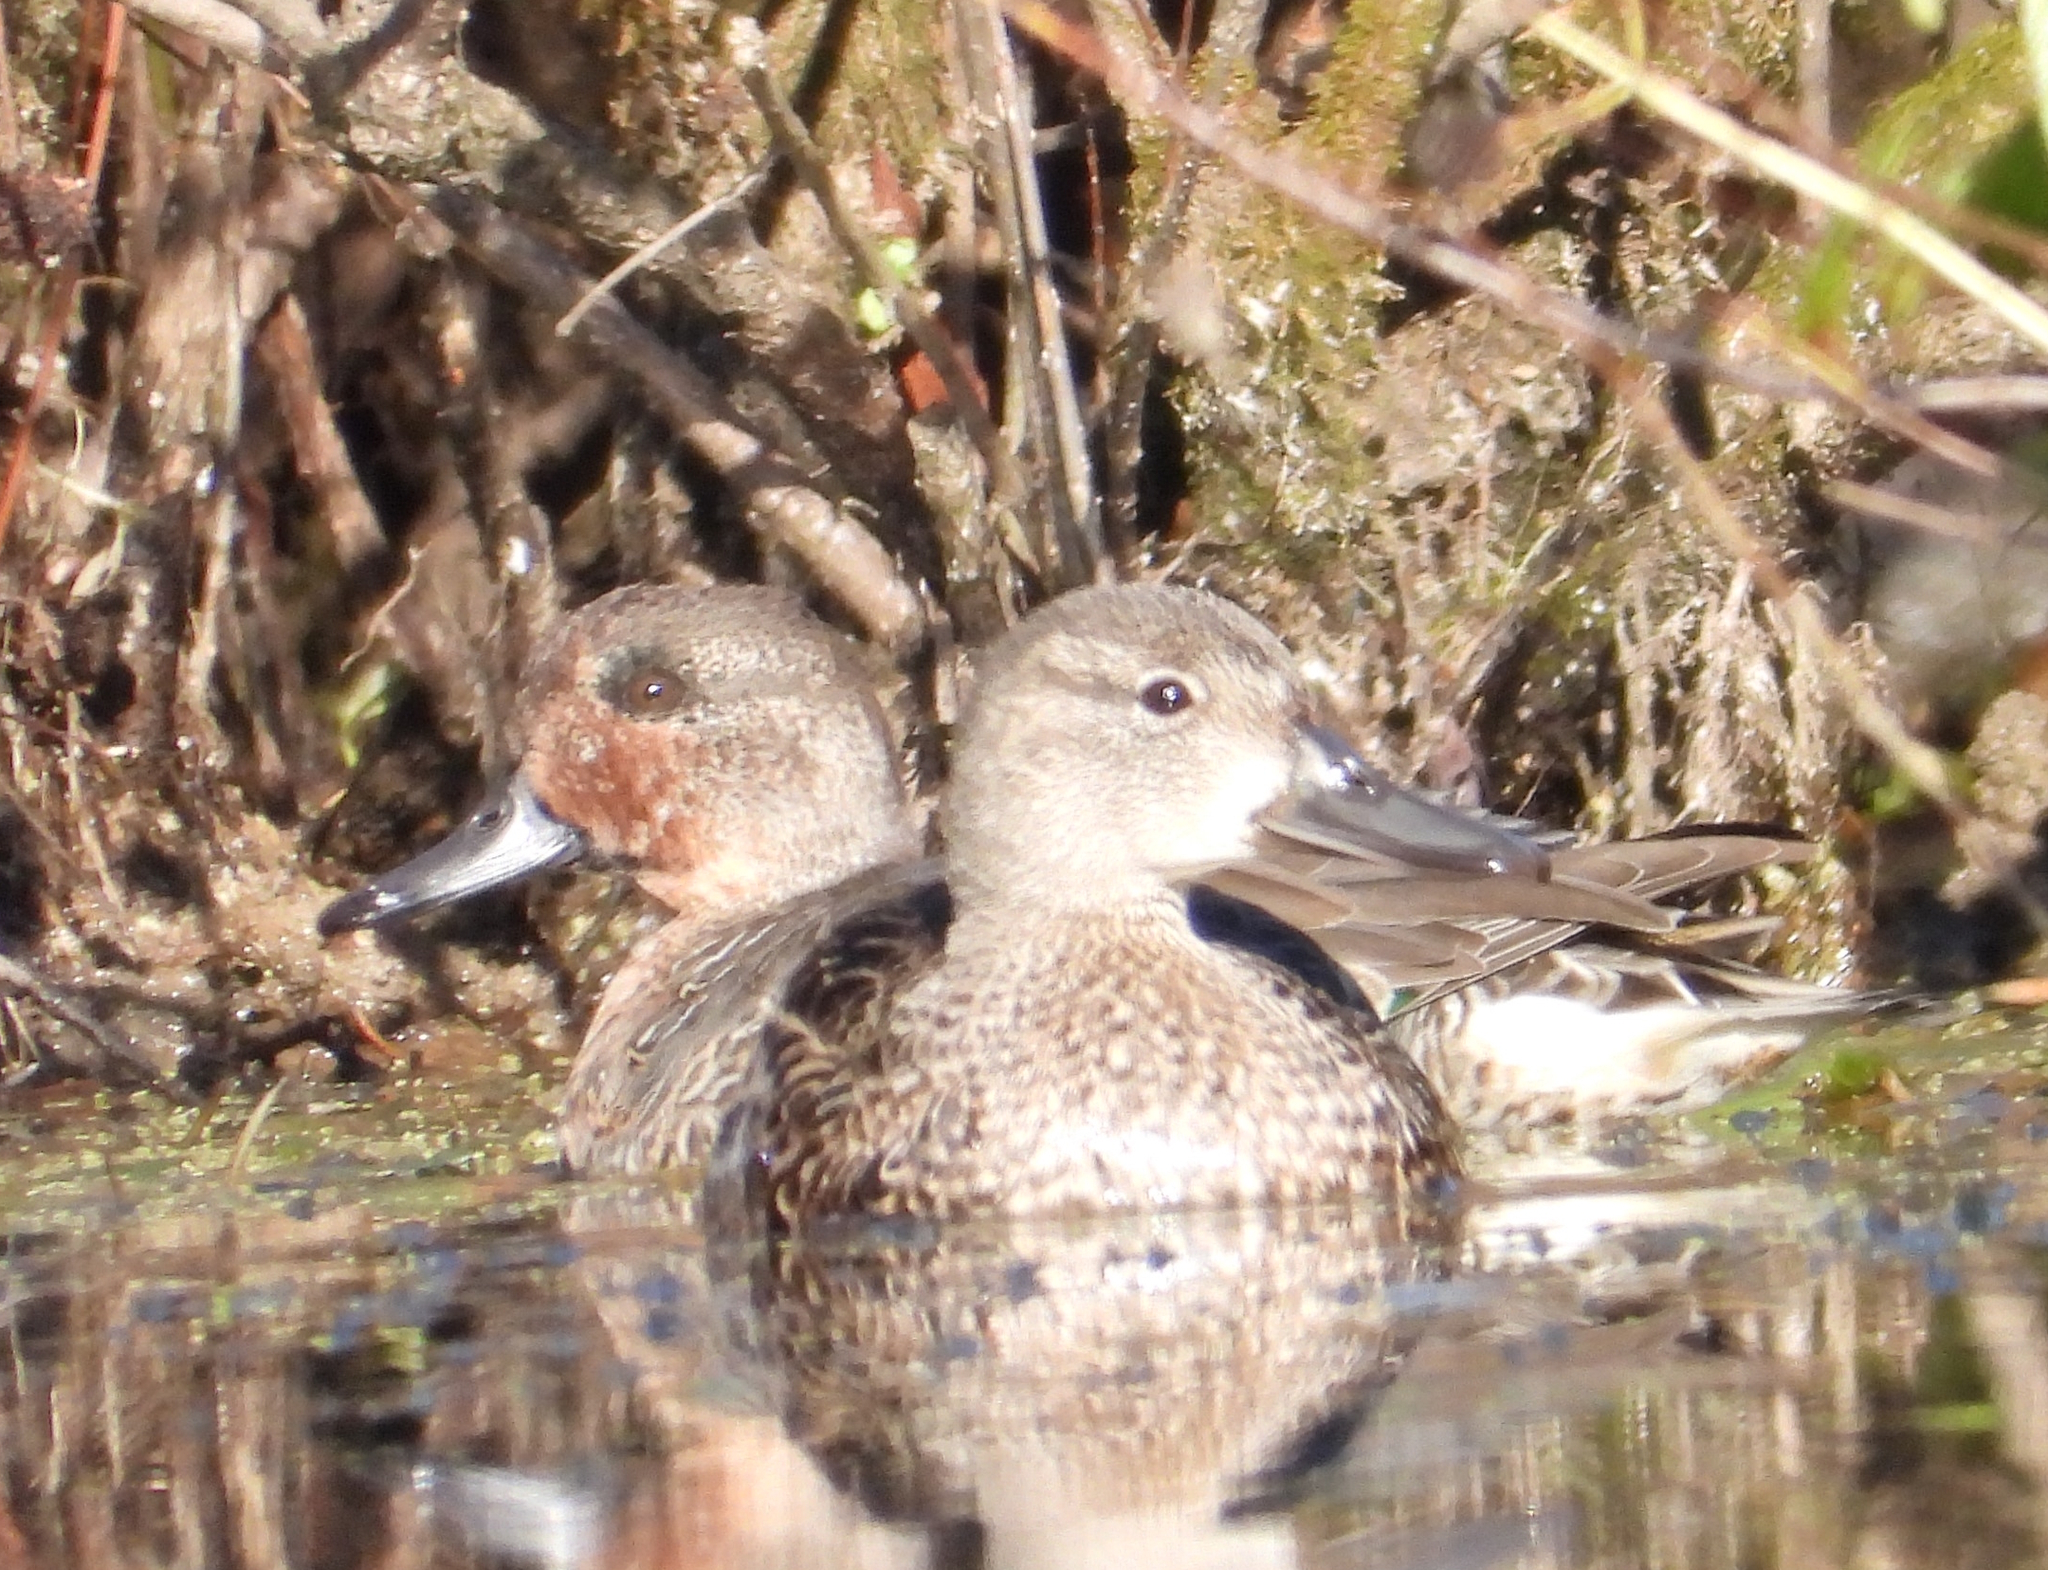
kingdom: Animalia
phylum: Chordata
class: Aves
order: Anseriformes
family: Anatidae
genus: Anas
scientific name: Anas crecca
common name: Eurasian teal
